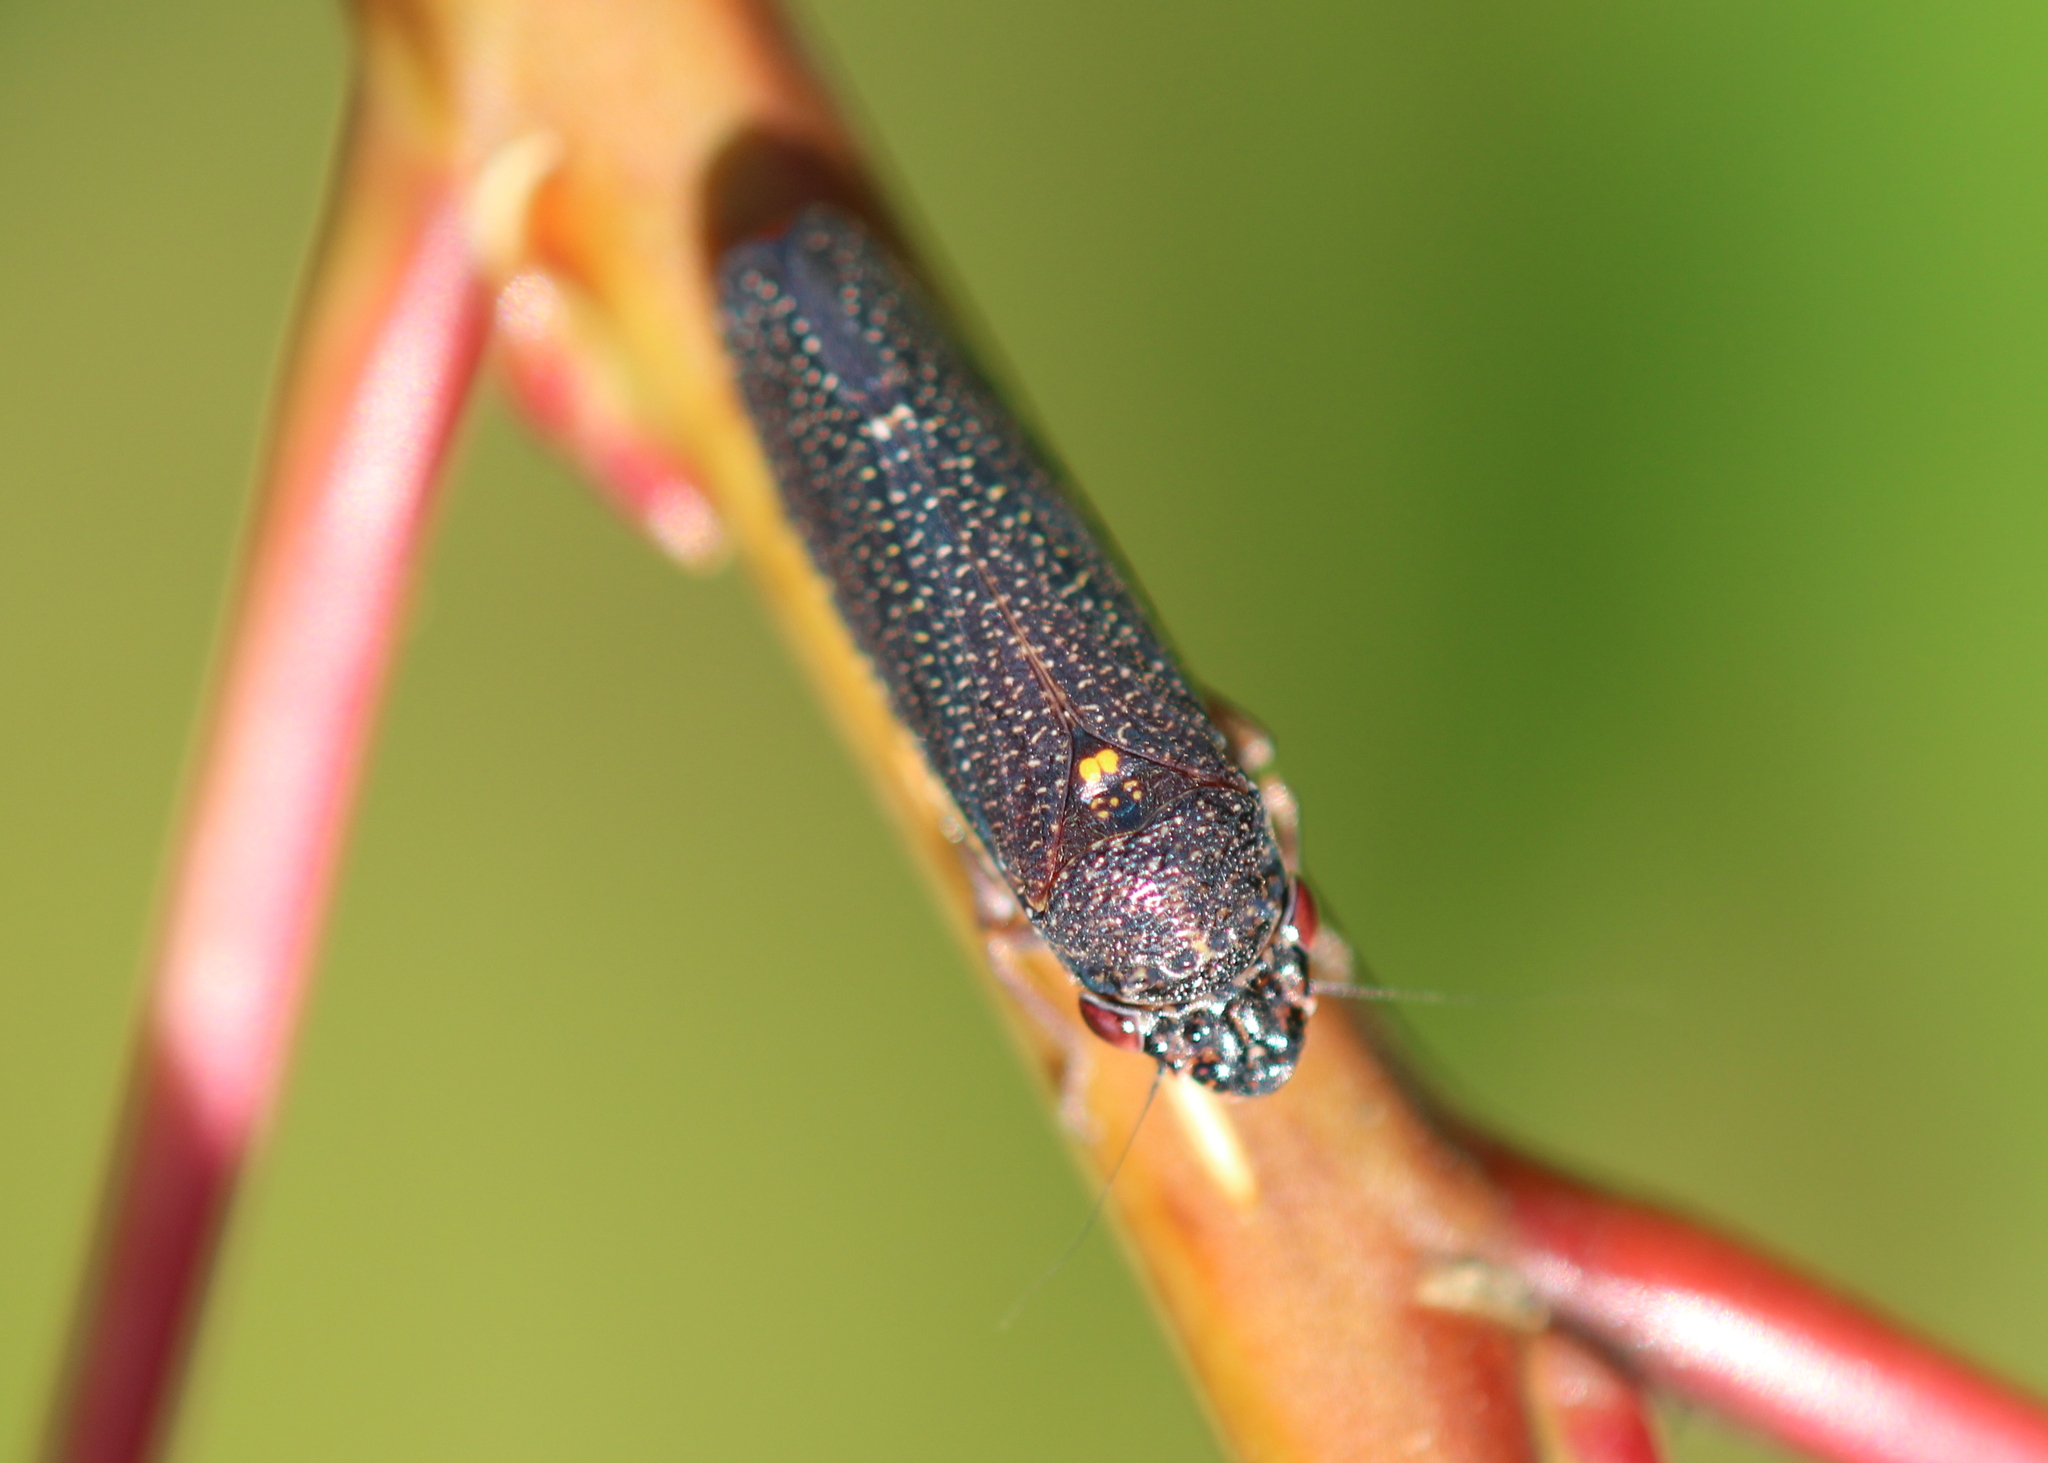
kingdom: Animalia
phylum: Arthropoda
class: Insecta
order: Hemiptera
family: Cicadellidae
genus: Paraulacizes
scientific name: Paraulacizes irrorata
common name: Speckled sharpshooter
